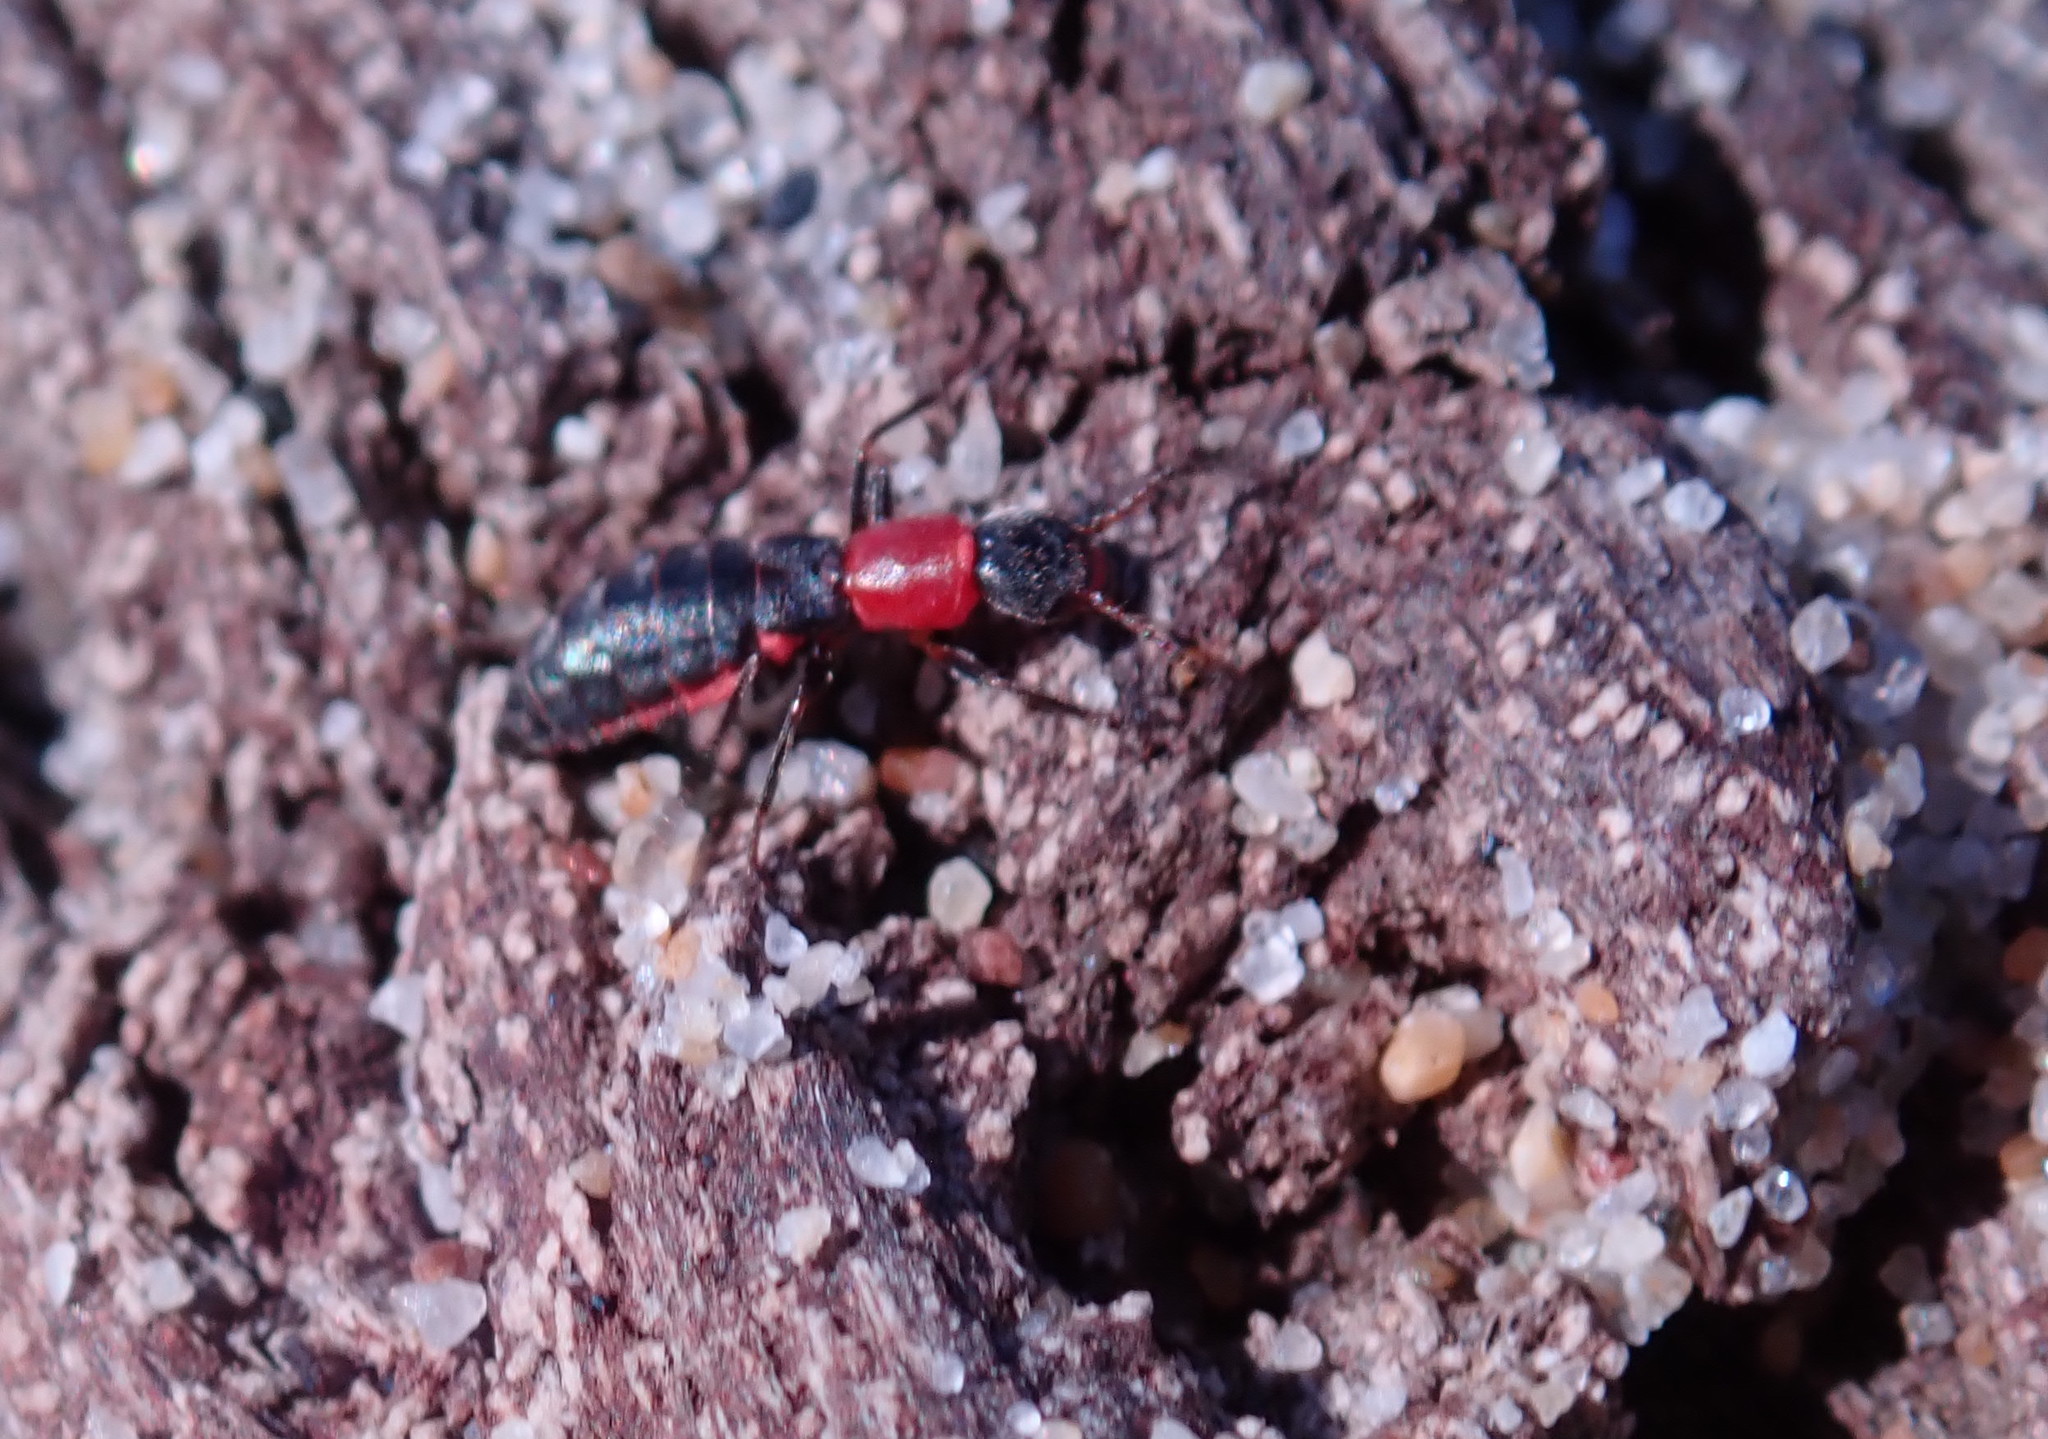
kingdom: Animalia
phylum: Arthropoda
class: Insecta
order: Coleoptera
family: Melyridae
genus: Endeodes
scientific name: Endeodes collaris
